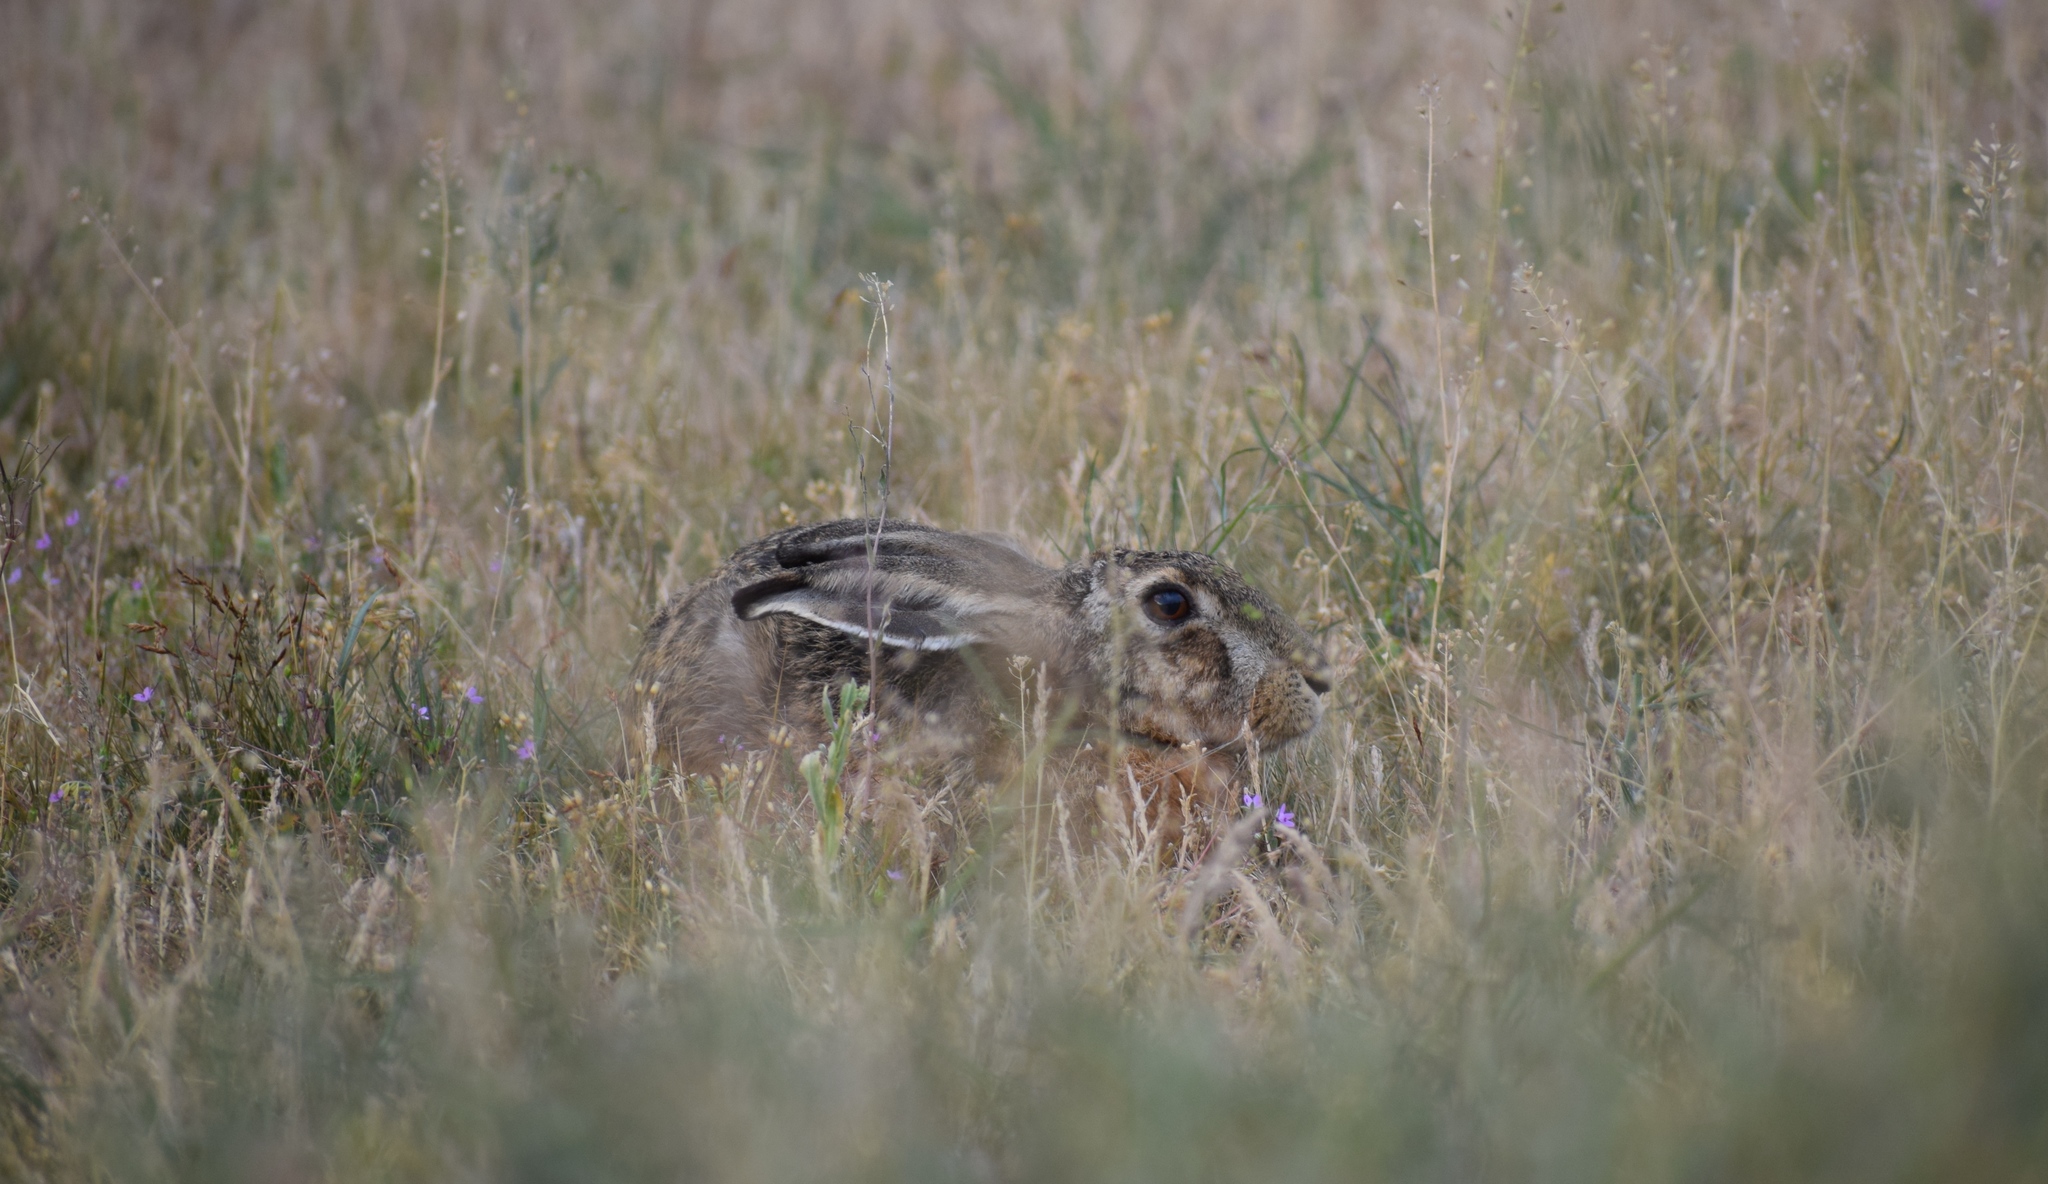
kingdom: Animalia
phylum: Chordata
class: Mammalia
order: Lagomorpha
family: Leporidae
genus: Lepus
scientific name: Lepus europaeus
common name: European hare
